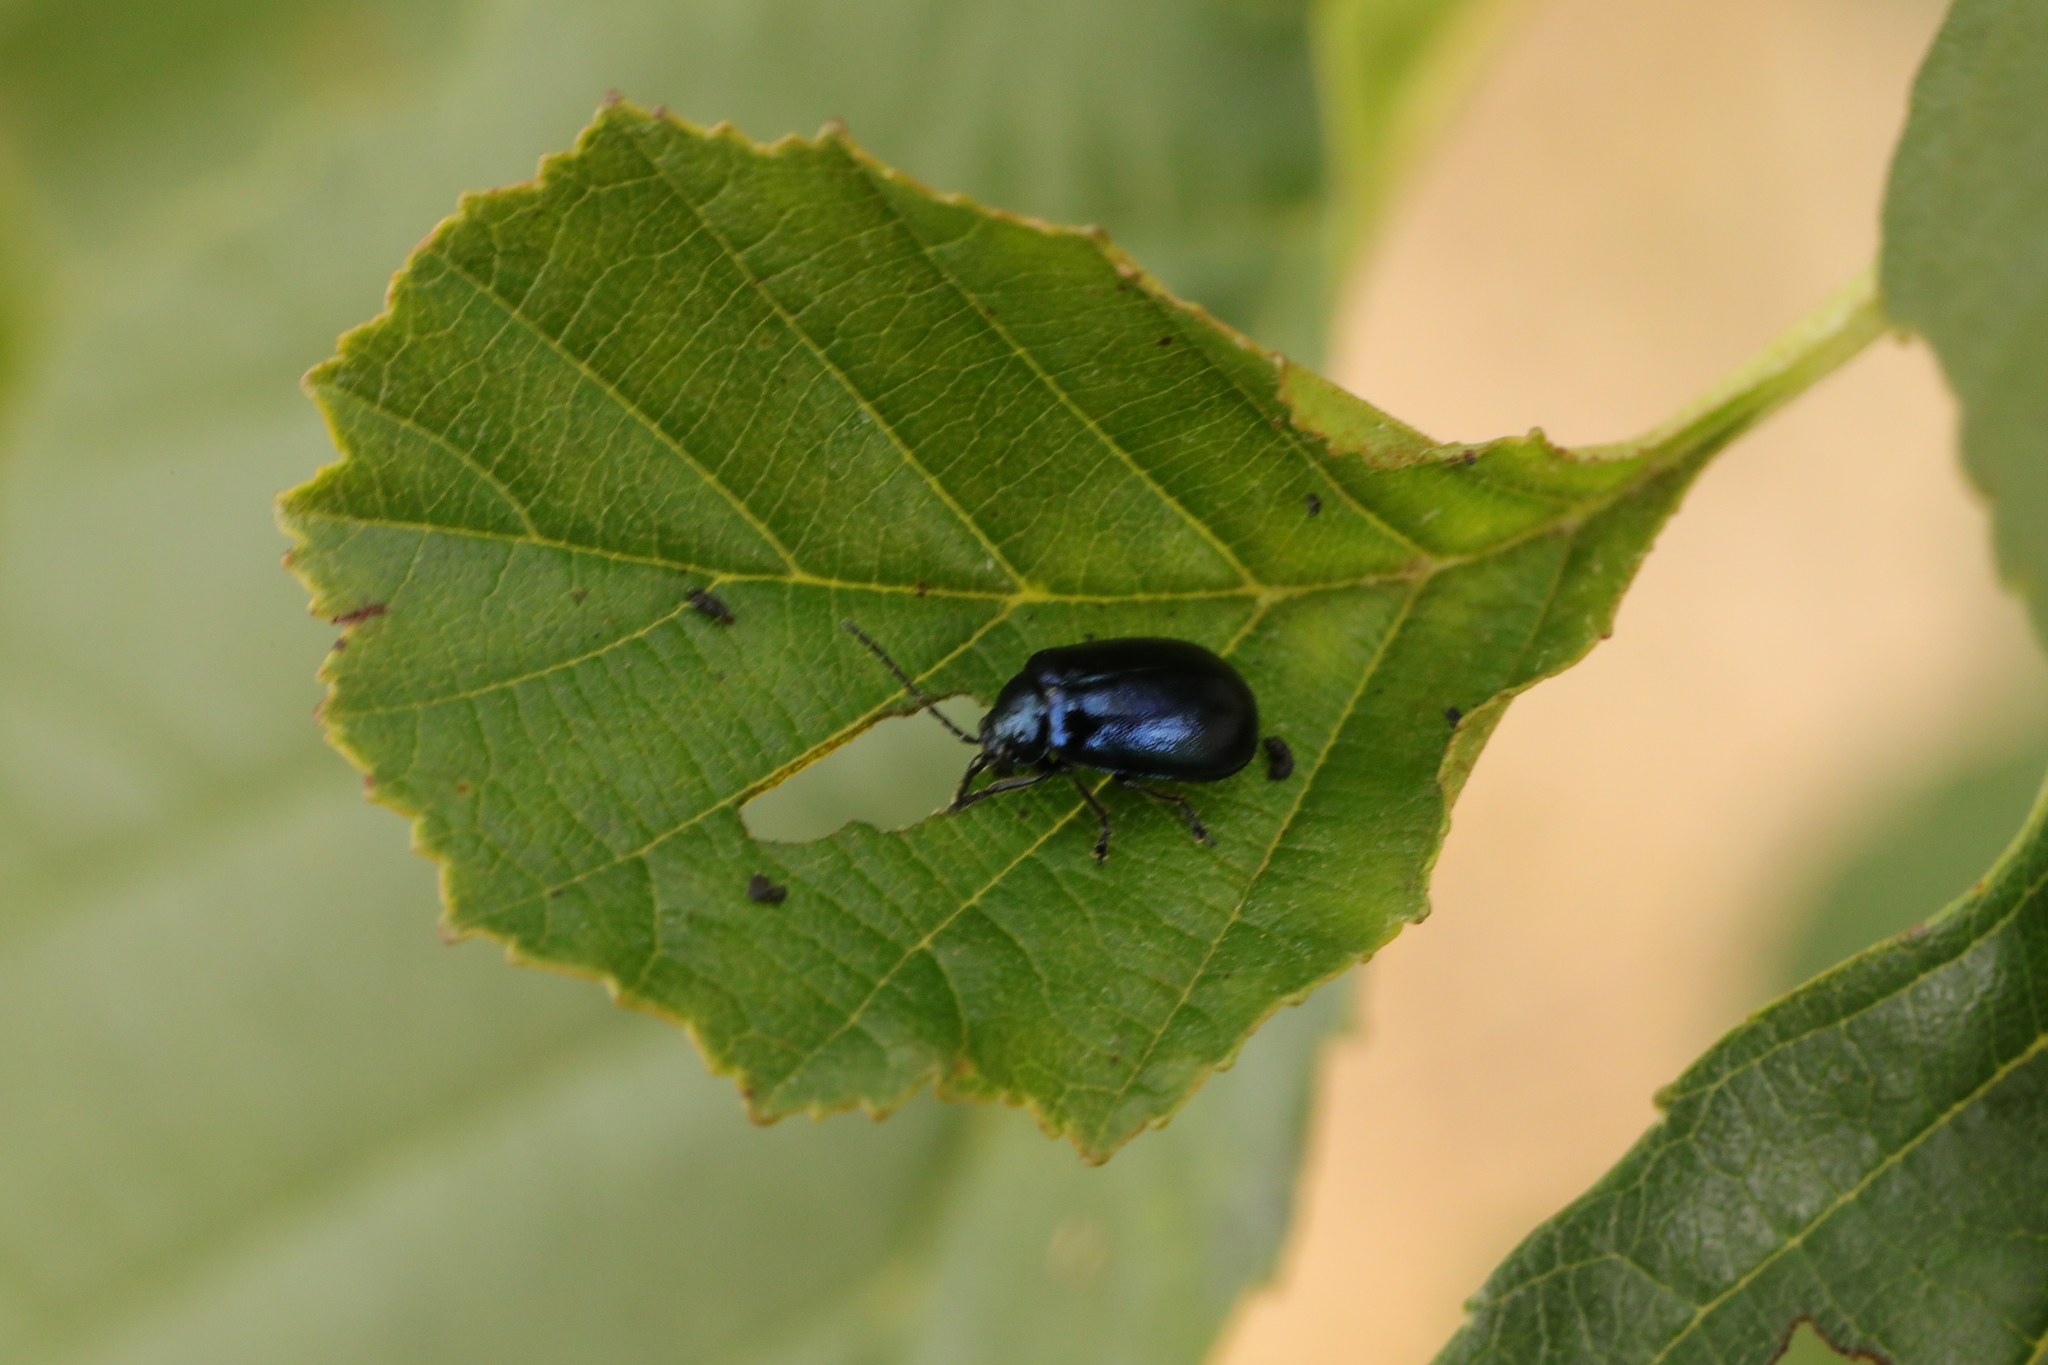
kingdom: Animalia
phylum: Arthropoda
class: Insecta
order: Coleoptera
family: Chrysomelidae
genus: Agelastica
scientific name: Agelastica alni
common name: Alder leaf beetle
